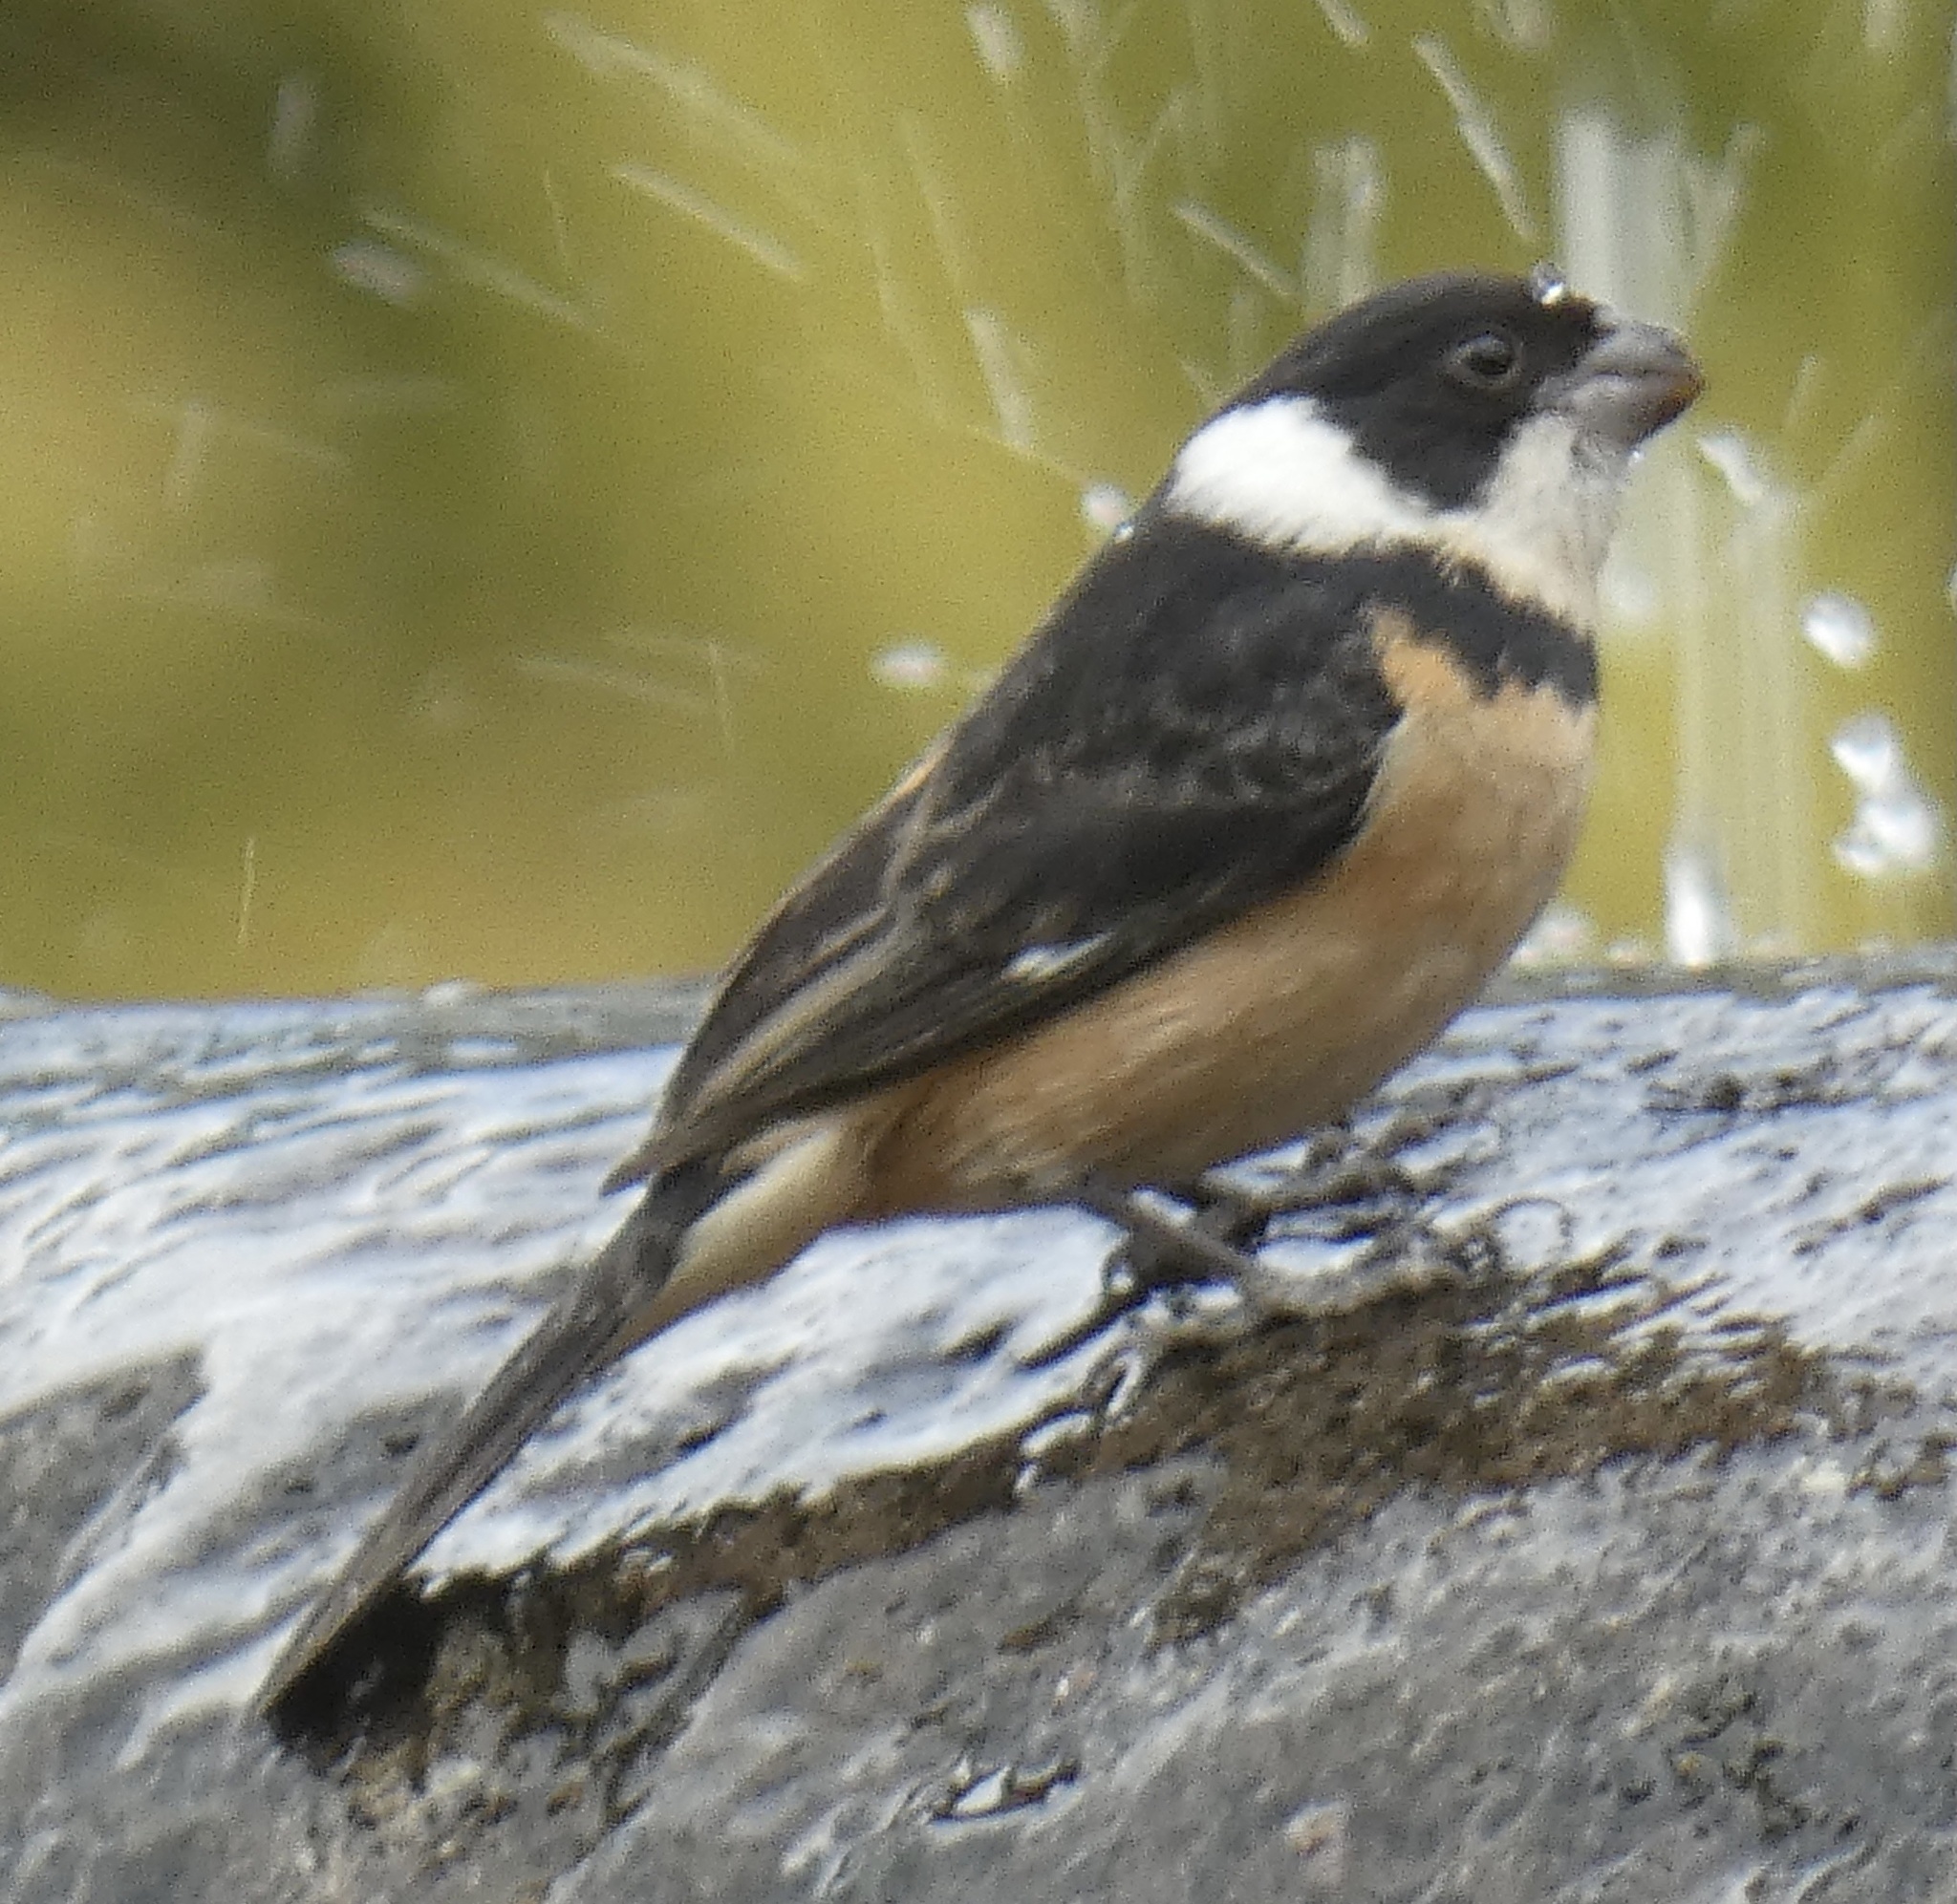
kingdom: Animalia
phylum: Chordata
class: Aves
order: Passeriformes
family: Thraupidae
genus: Sporophila
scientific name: Sporophila torqueola
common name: White-collared seedeater
